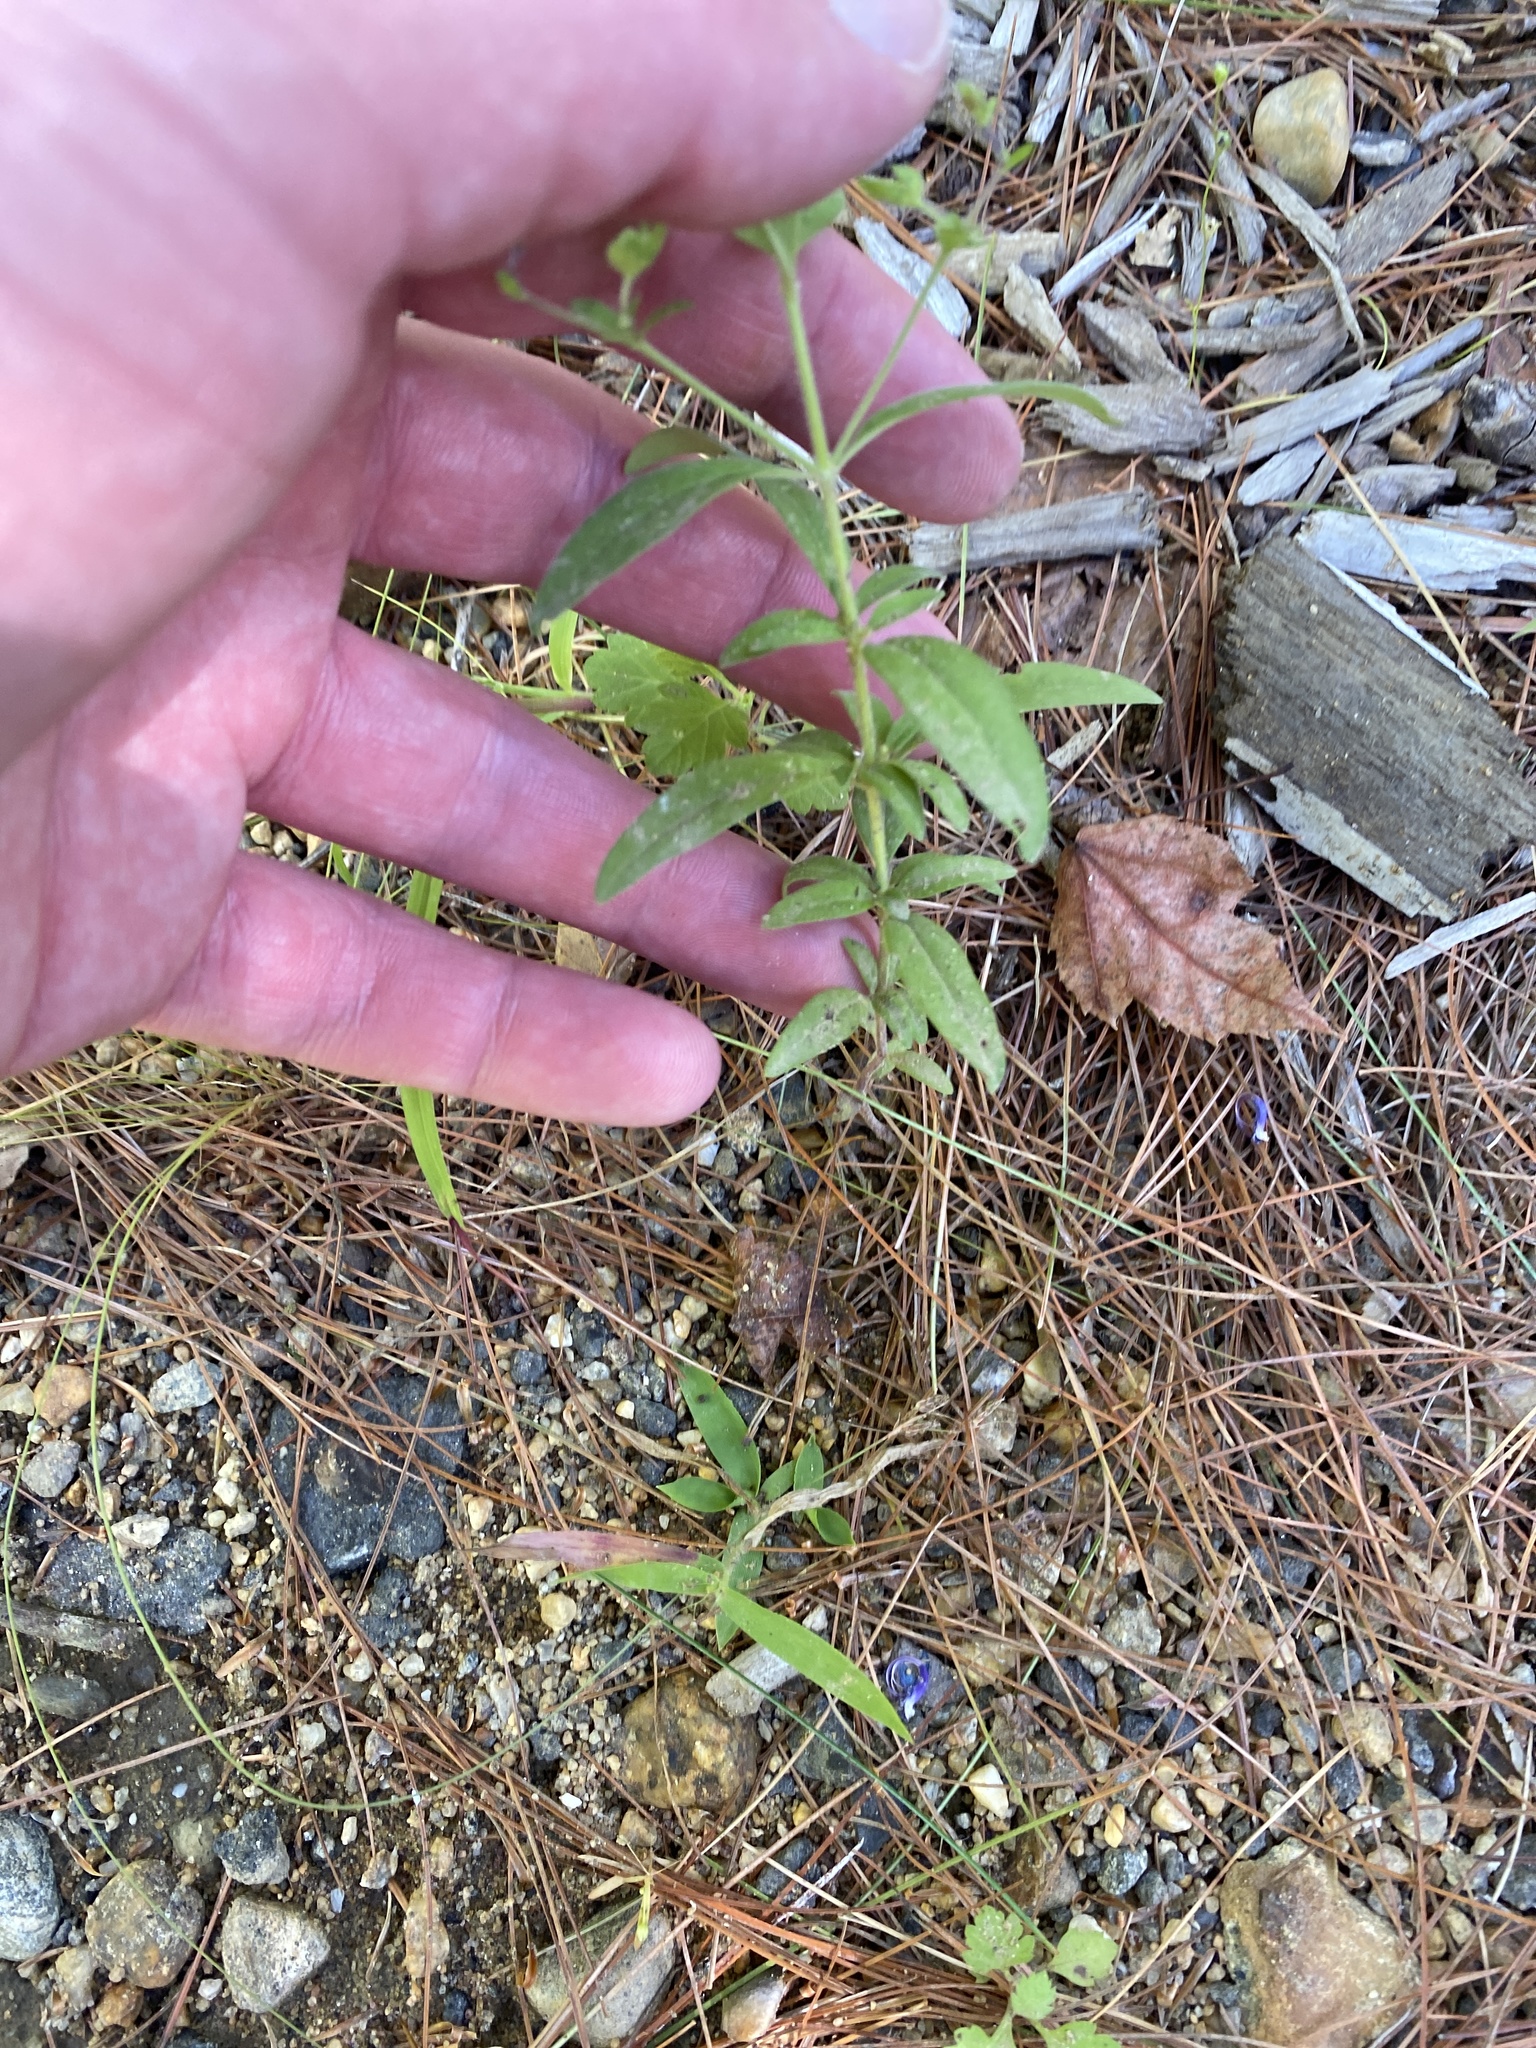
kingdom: Plantae
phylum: Tracheophyta
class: Magnoliopsida
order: Lamiales
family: Lamiaceae
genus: Trichostema
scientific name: Trichostema dichotomum
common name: Bastard pennyroyal
